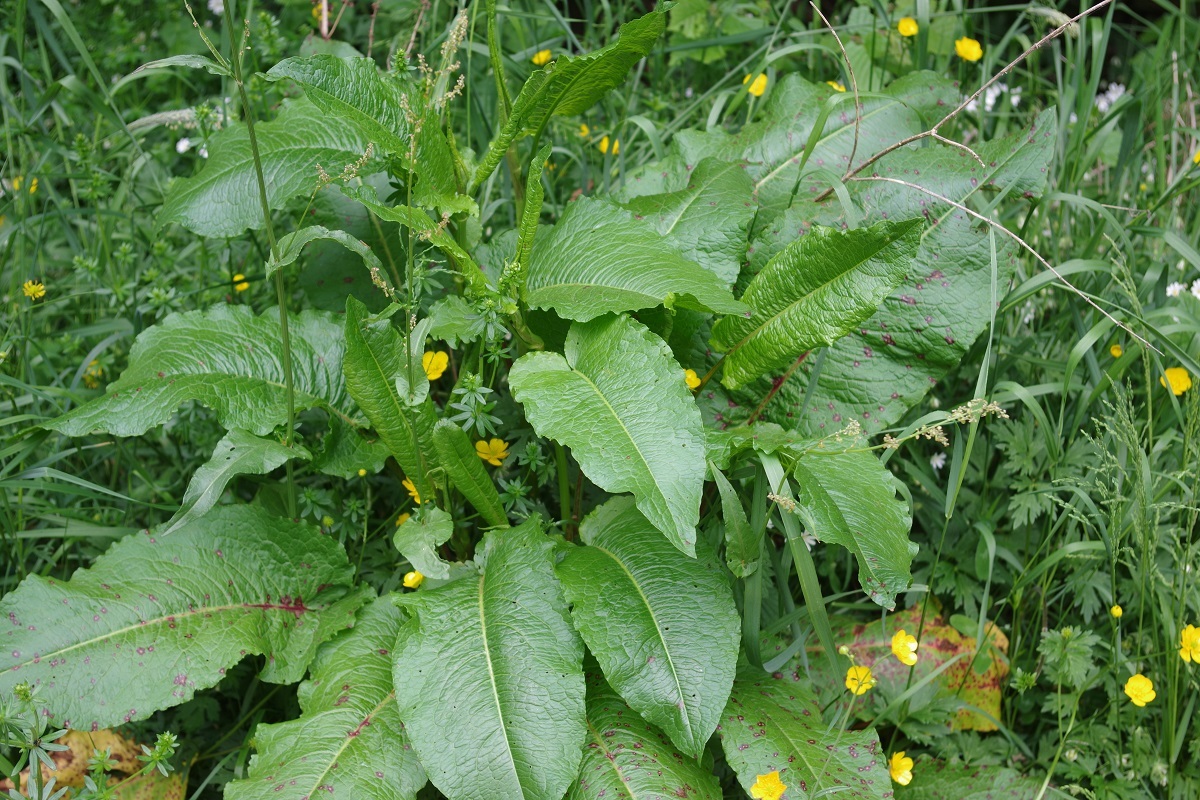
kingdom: Plantae
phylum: Tracheophyta
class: Magnoliopsida
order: Caryophyllales
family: Polygonaceae
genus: Rumex
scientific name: Rumex obtusifolius
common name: Bitter dock
